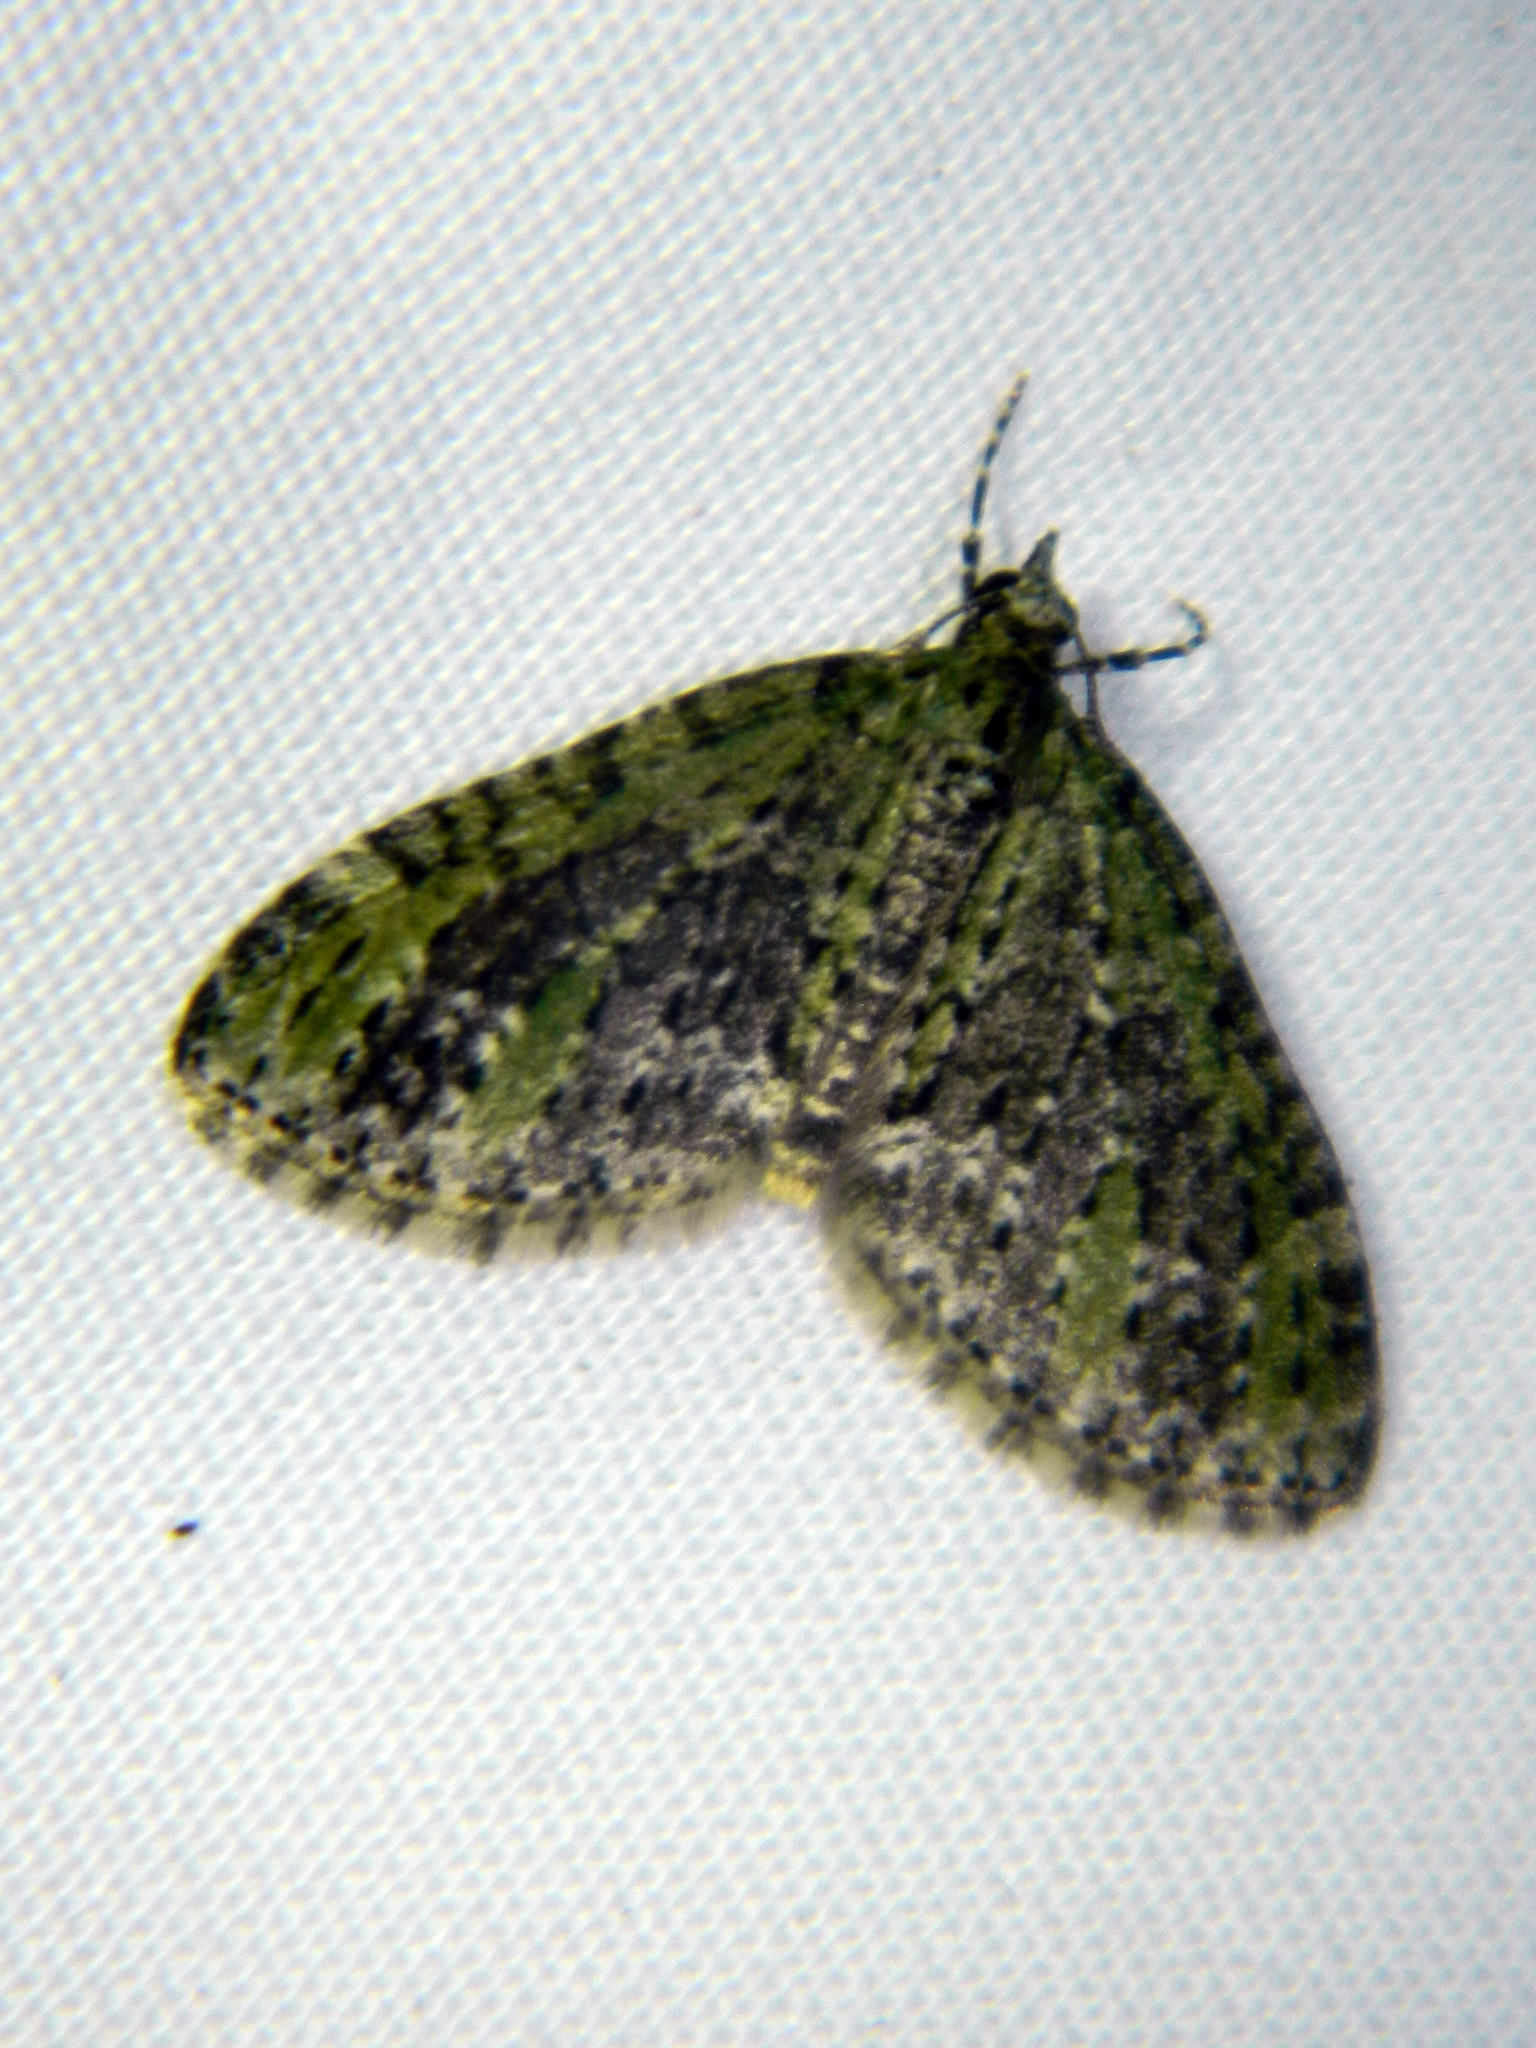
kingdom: Animalia
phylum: Arthropoda
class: Insecta
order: Lepidoptera
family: Geometridae
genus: Acasis
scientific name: Acasis viridata
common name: Olive-and-black carpet moth
